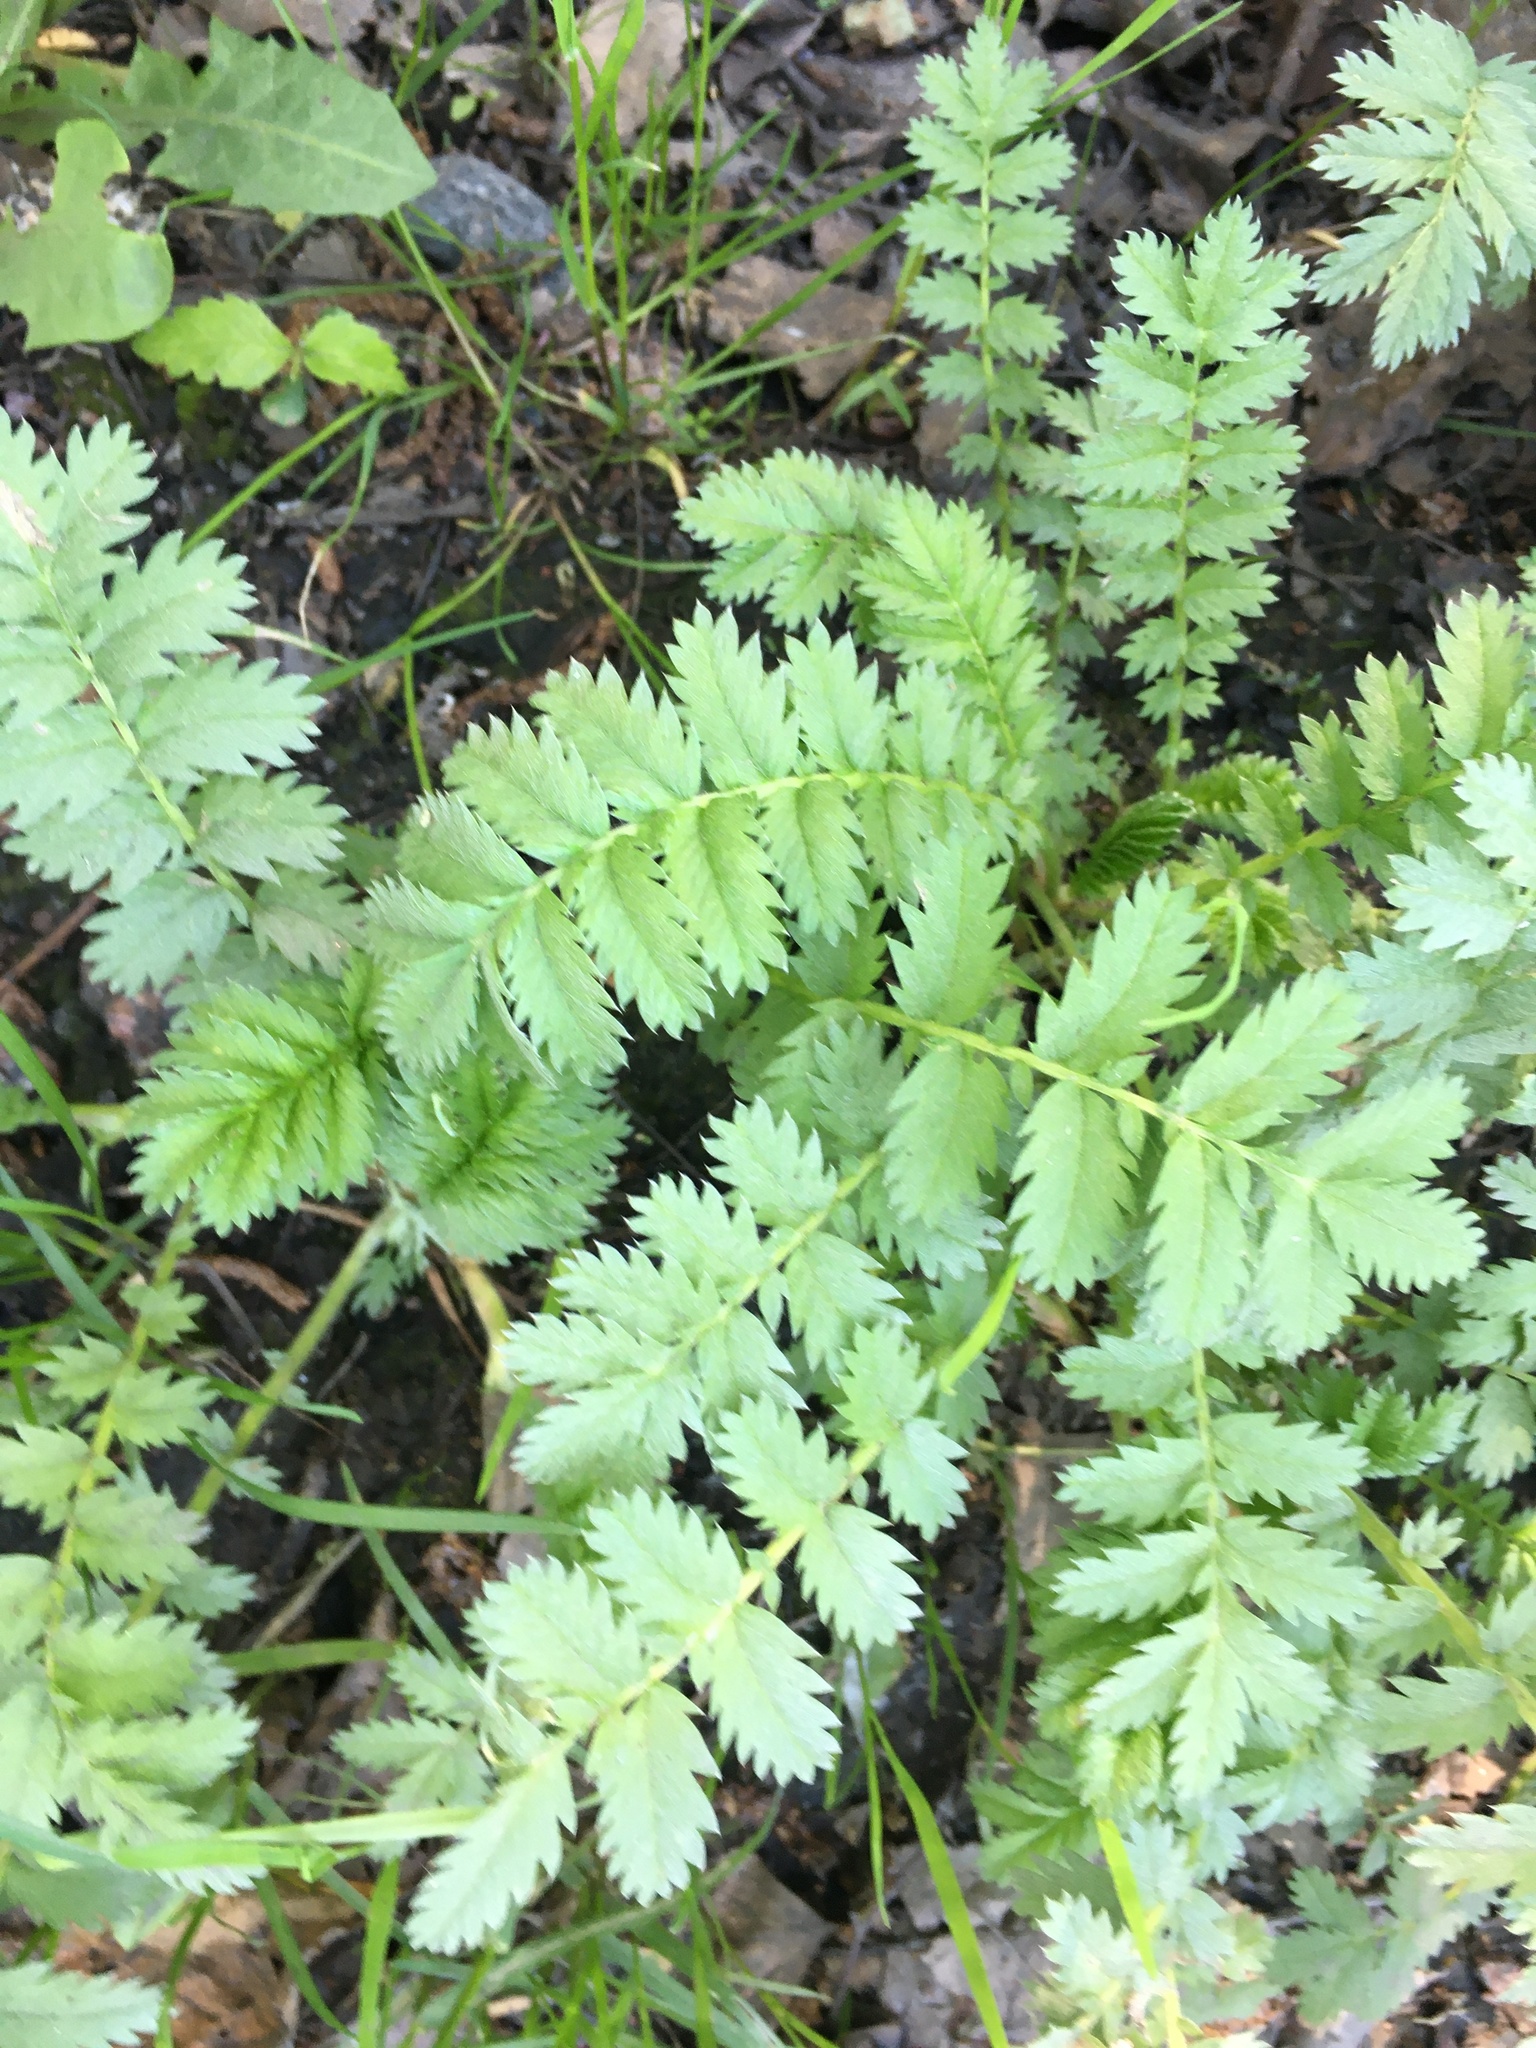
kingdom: Plantae
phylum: Tracheophyta
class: Magnoliopsida
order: Rosales
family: Rosaceae
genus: Argentina
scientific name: Argentina anserina
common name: Common silverweed
